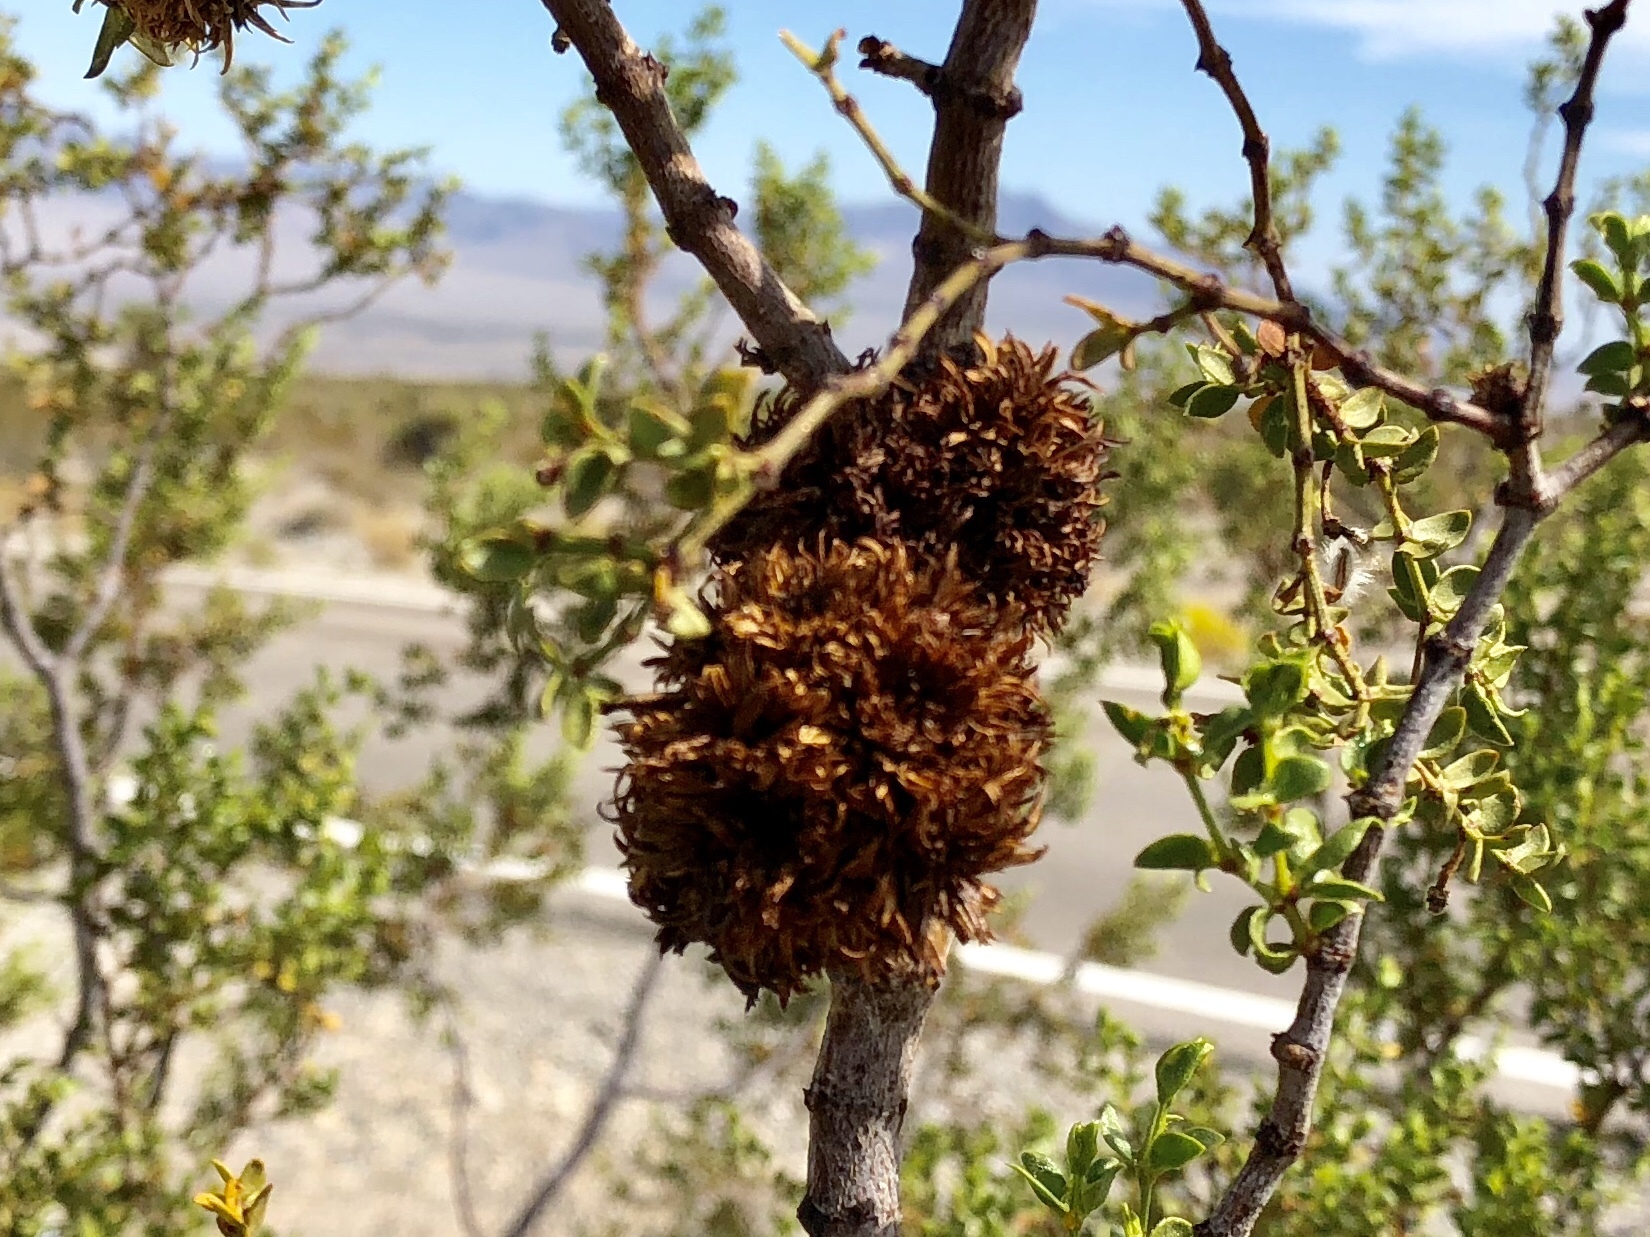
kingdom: Animalia
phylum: Arthropoda
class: Insecta
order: Diptera
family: Cecidomyiidae
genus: Asphondylia
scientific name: Asphondylia auripila
